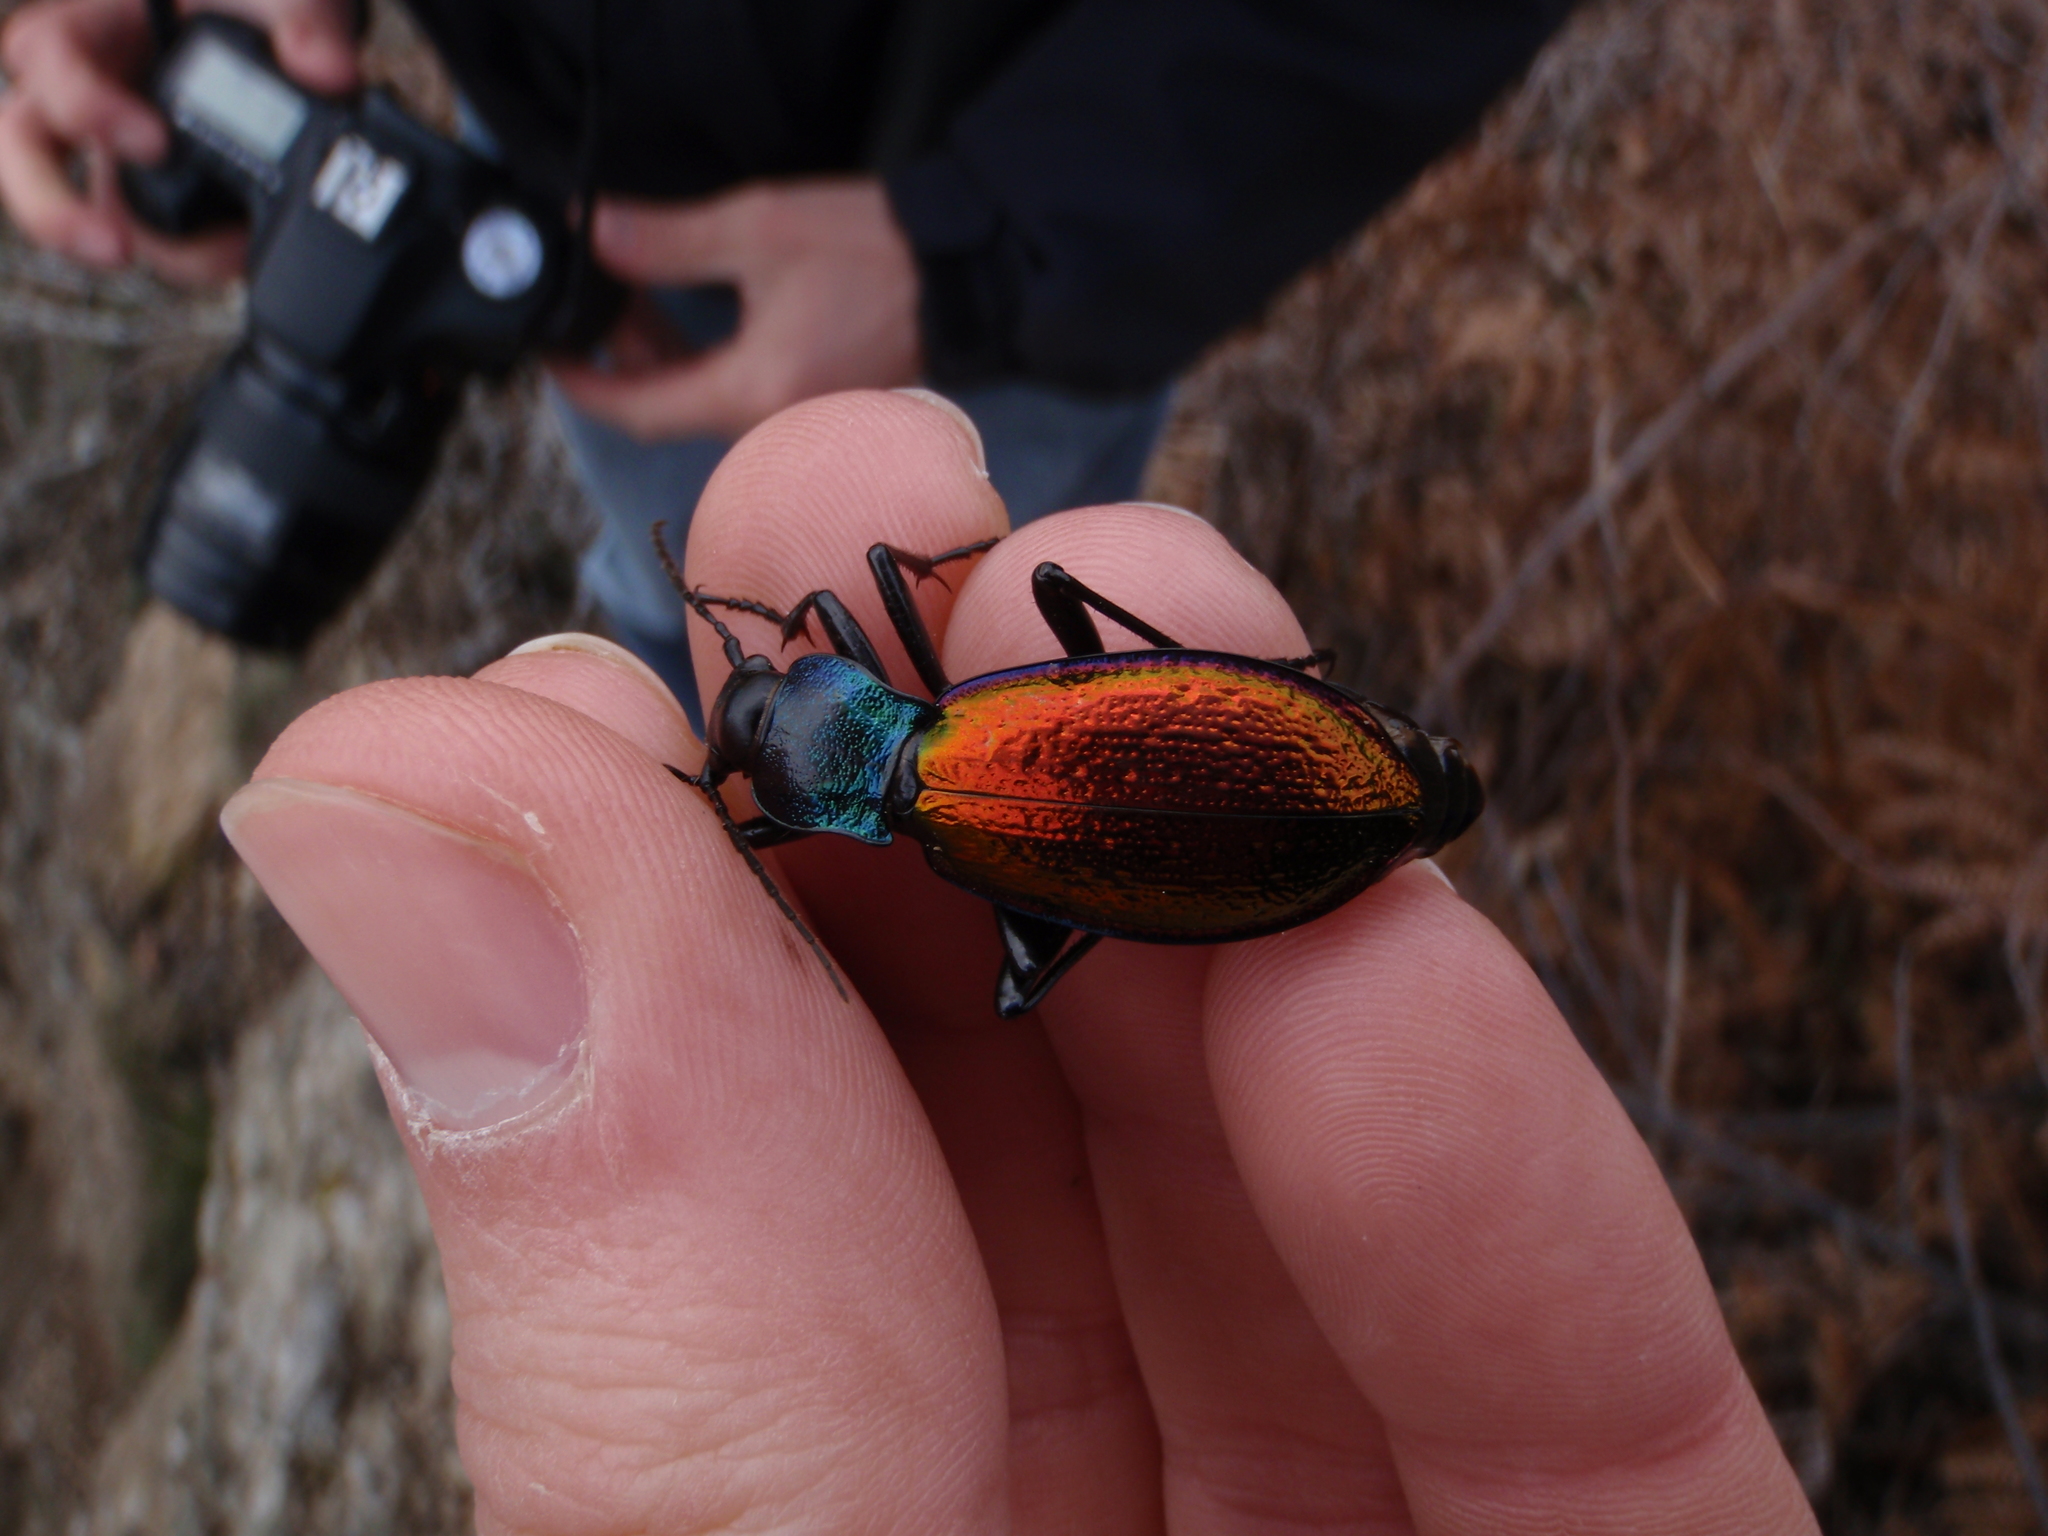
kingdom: Animalia
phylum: Arthropoda
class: Insecta
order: Coleoptera
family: Carabidae
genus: Carabus
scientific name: Carabus hispanus
